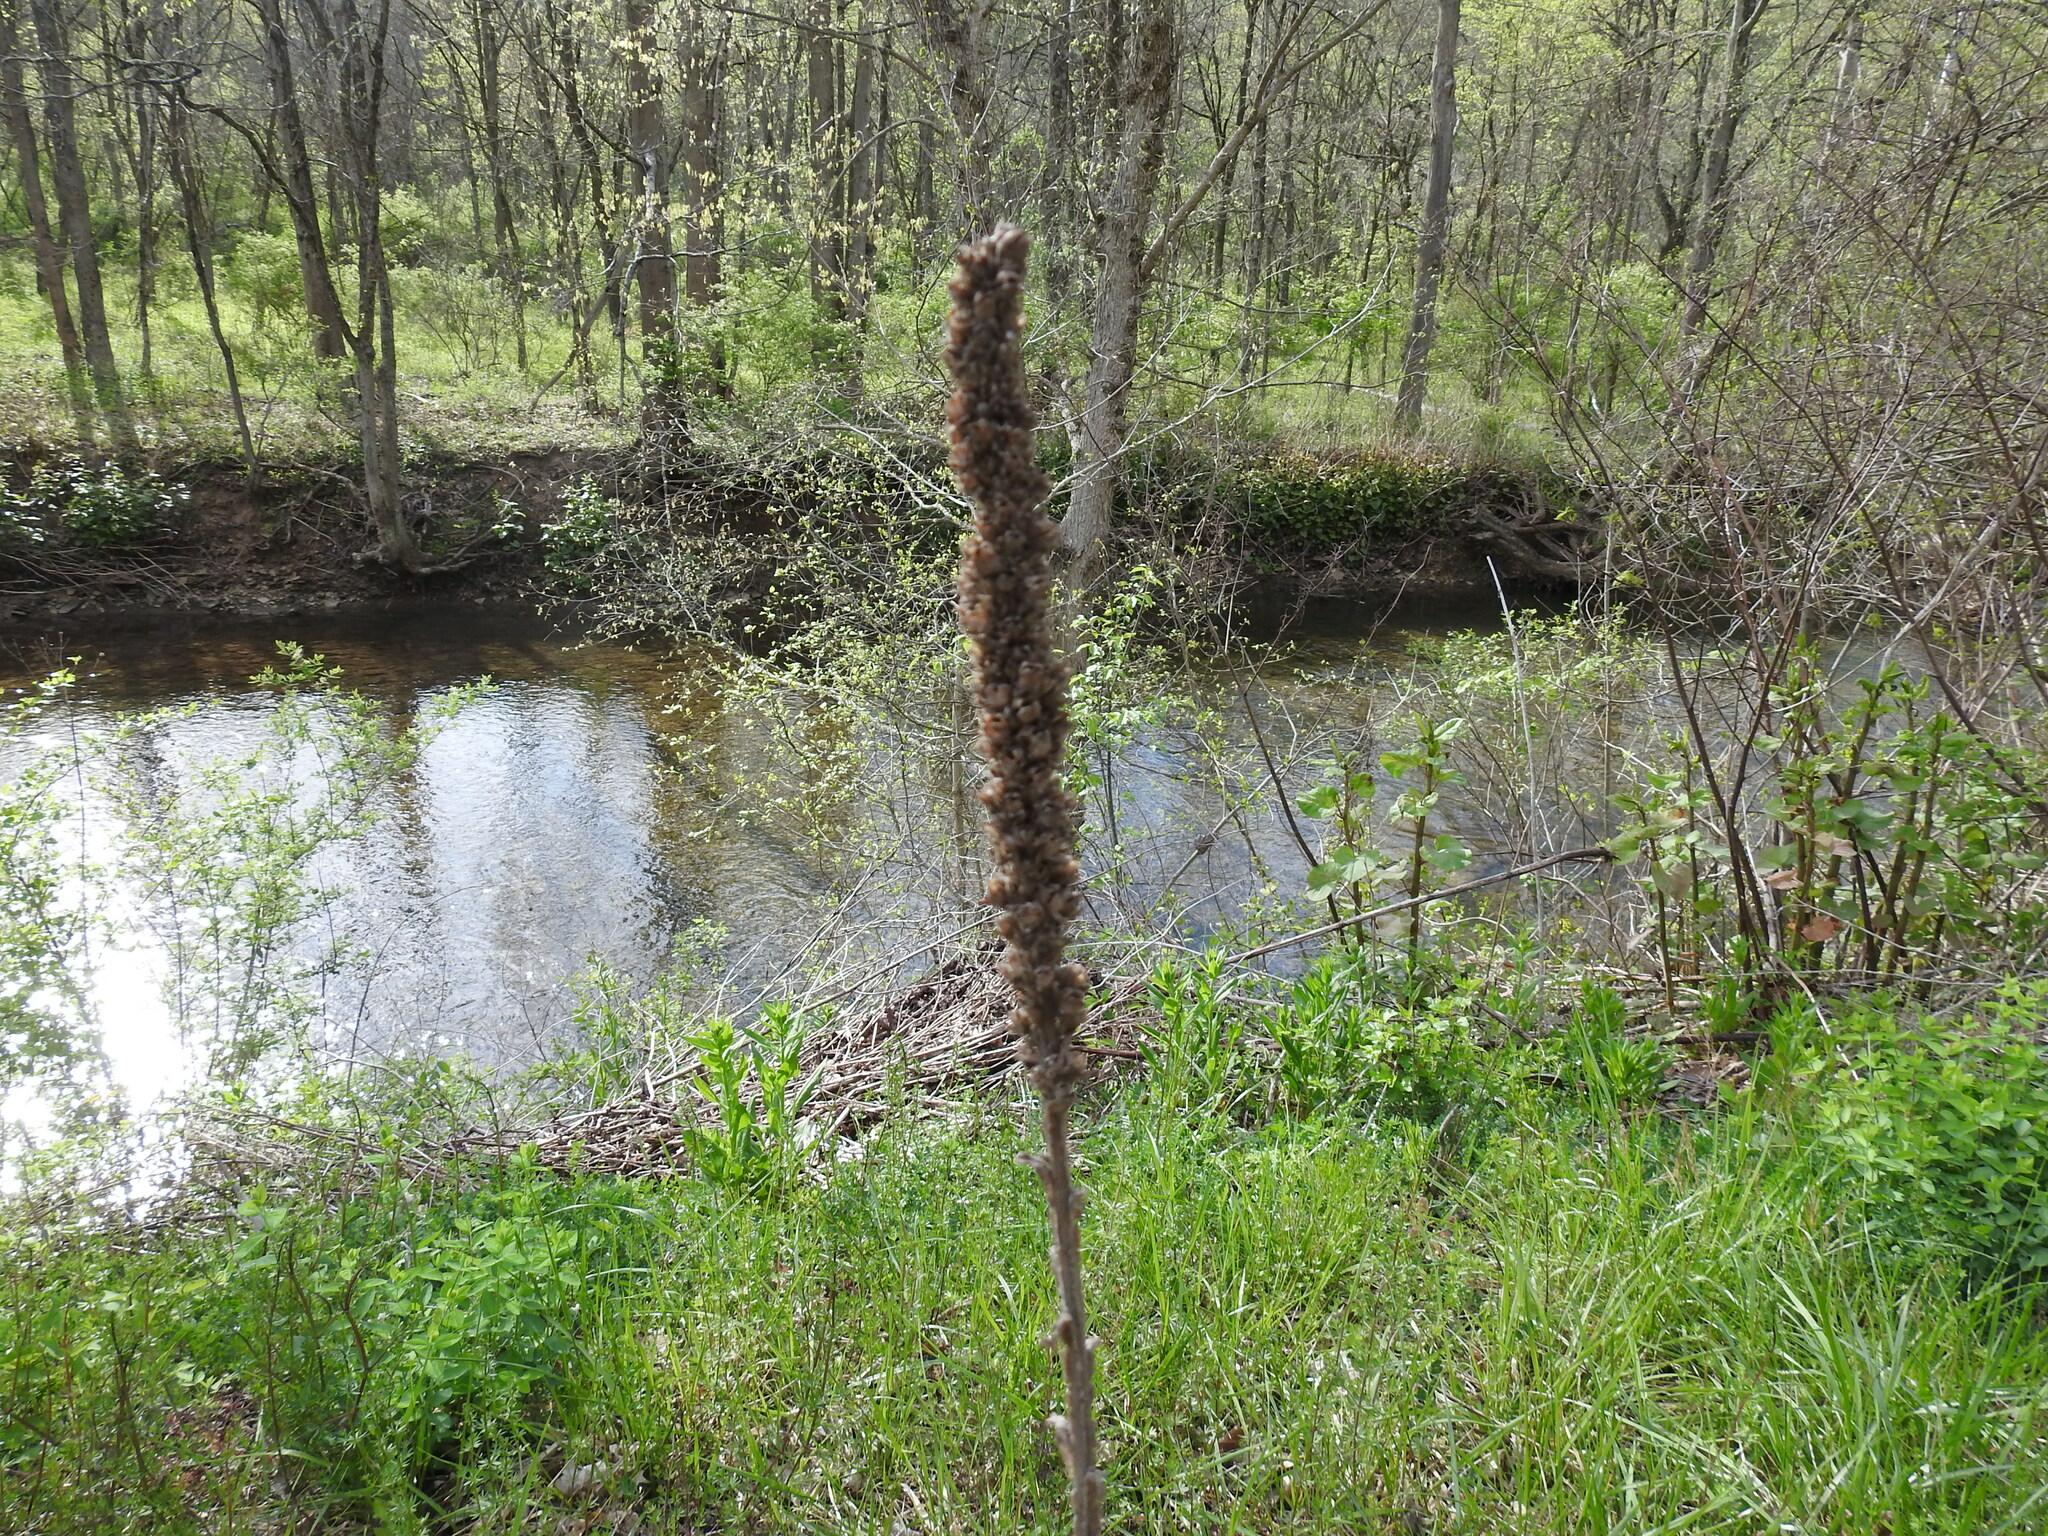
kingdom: Plantae
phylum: Tracheophyta
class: Magnoliopsida
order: Lamiales
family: Scrophulariaceae
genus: Verbascum
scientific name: Verbascum thapsus
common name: Common mullein
